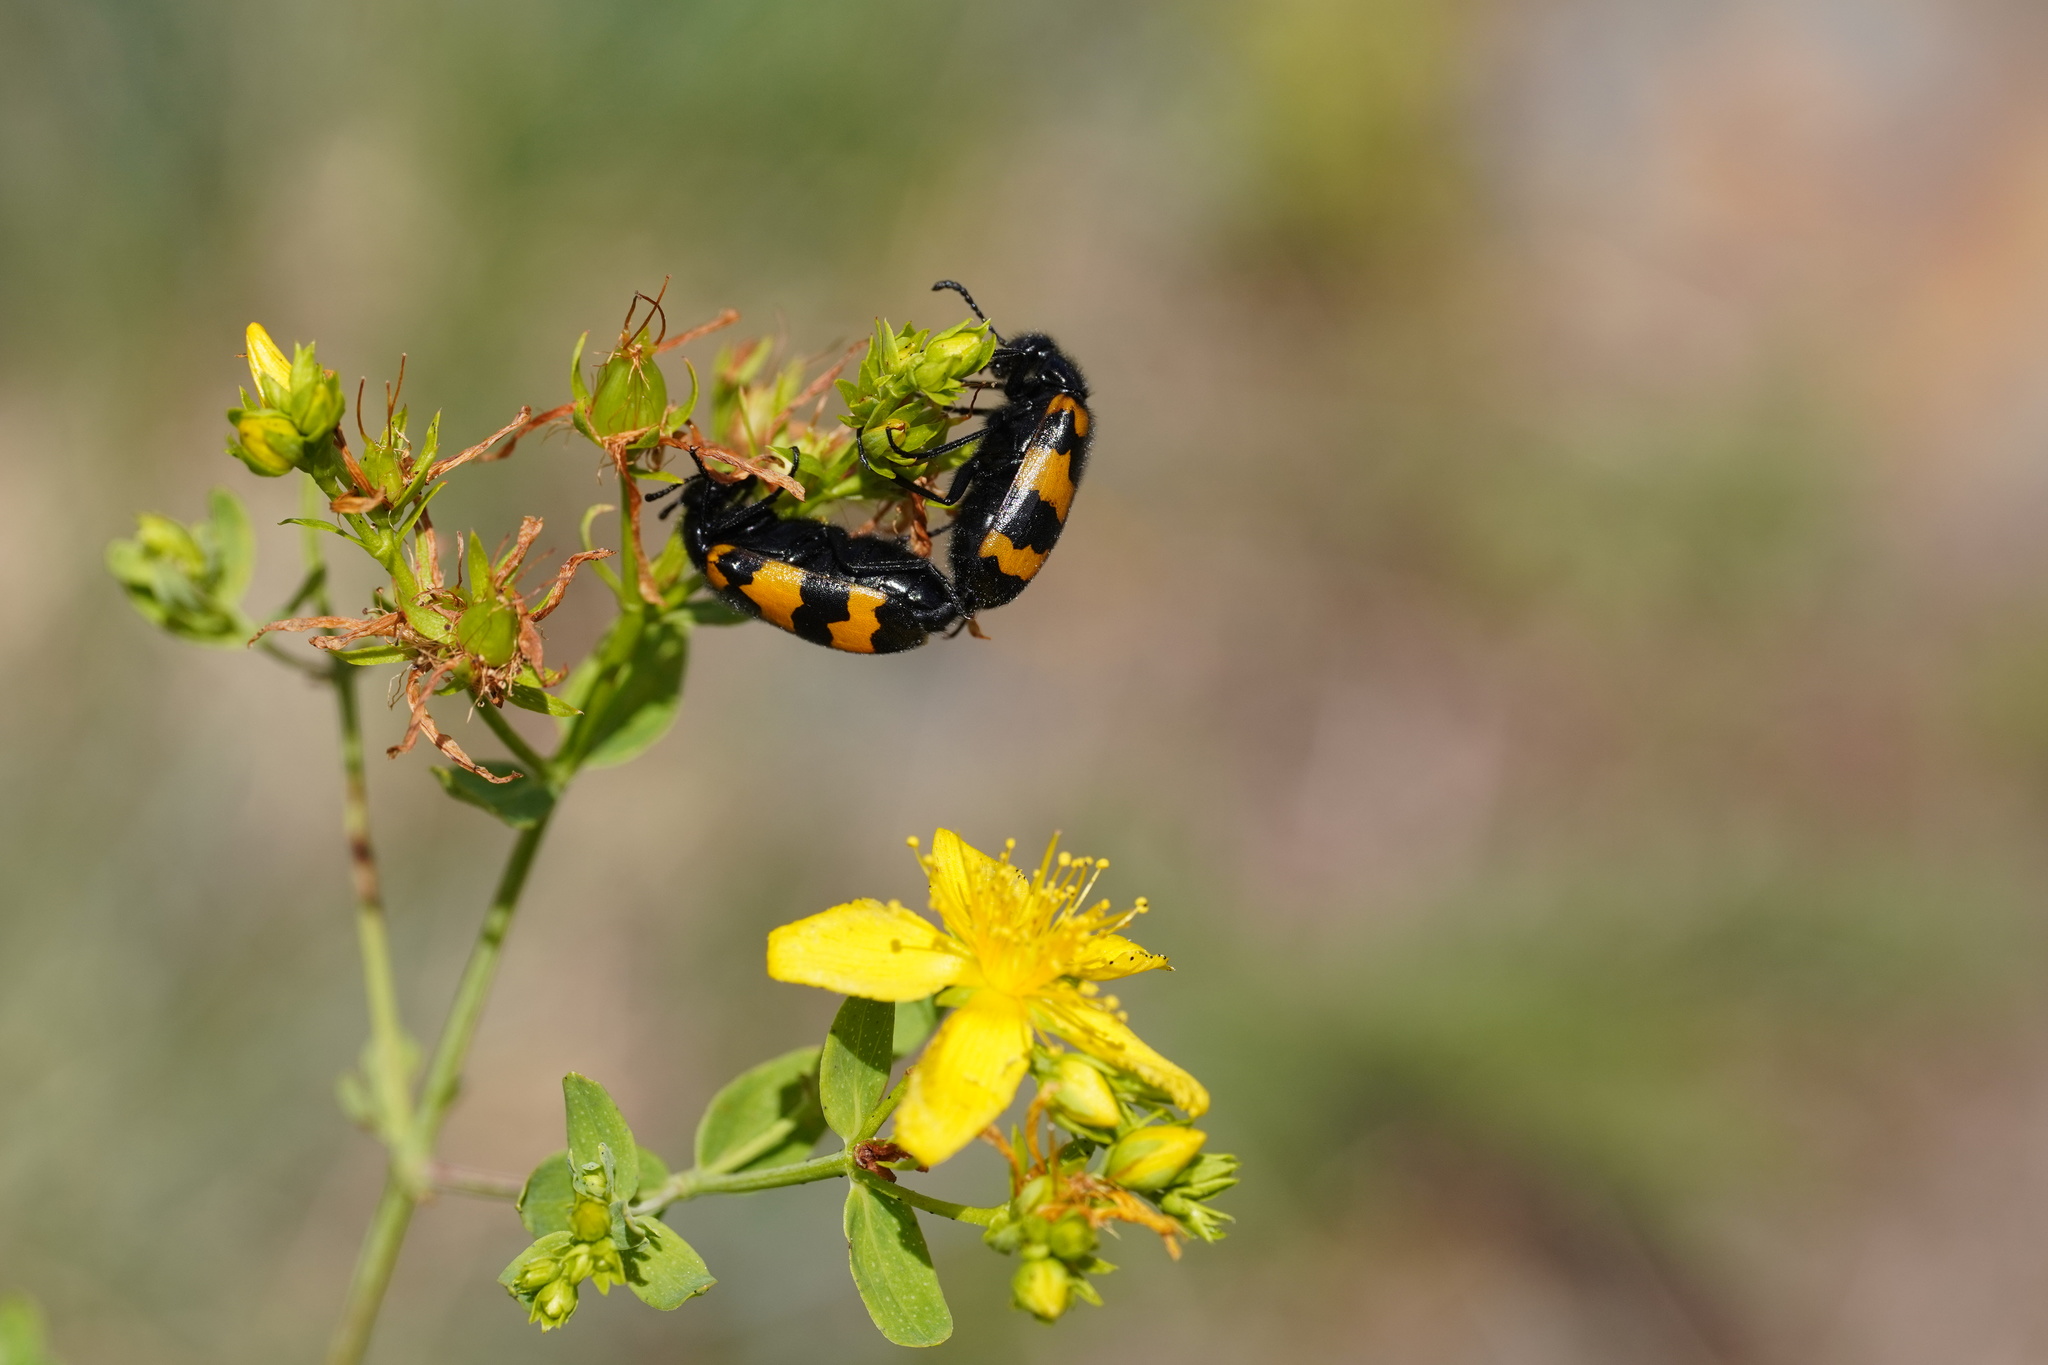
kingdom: Animalia
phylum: Arthropoda
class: Insecta
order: Coleoptera
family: Meloidae
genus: Mylabris
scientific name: Mylabris variabilis
